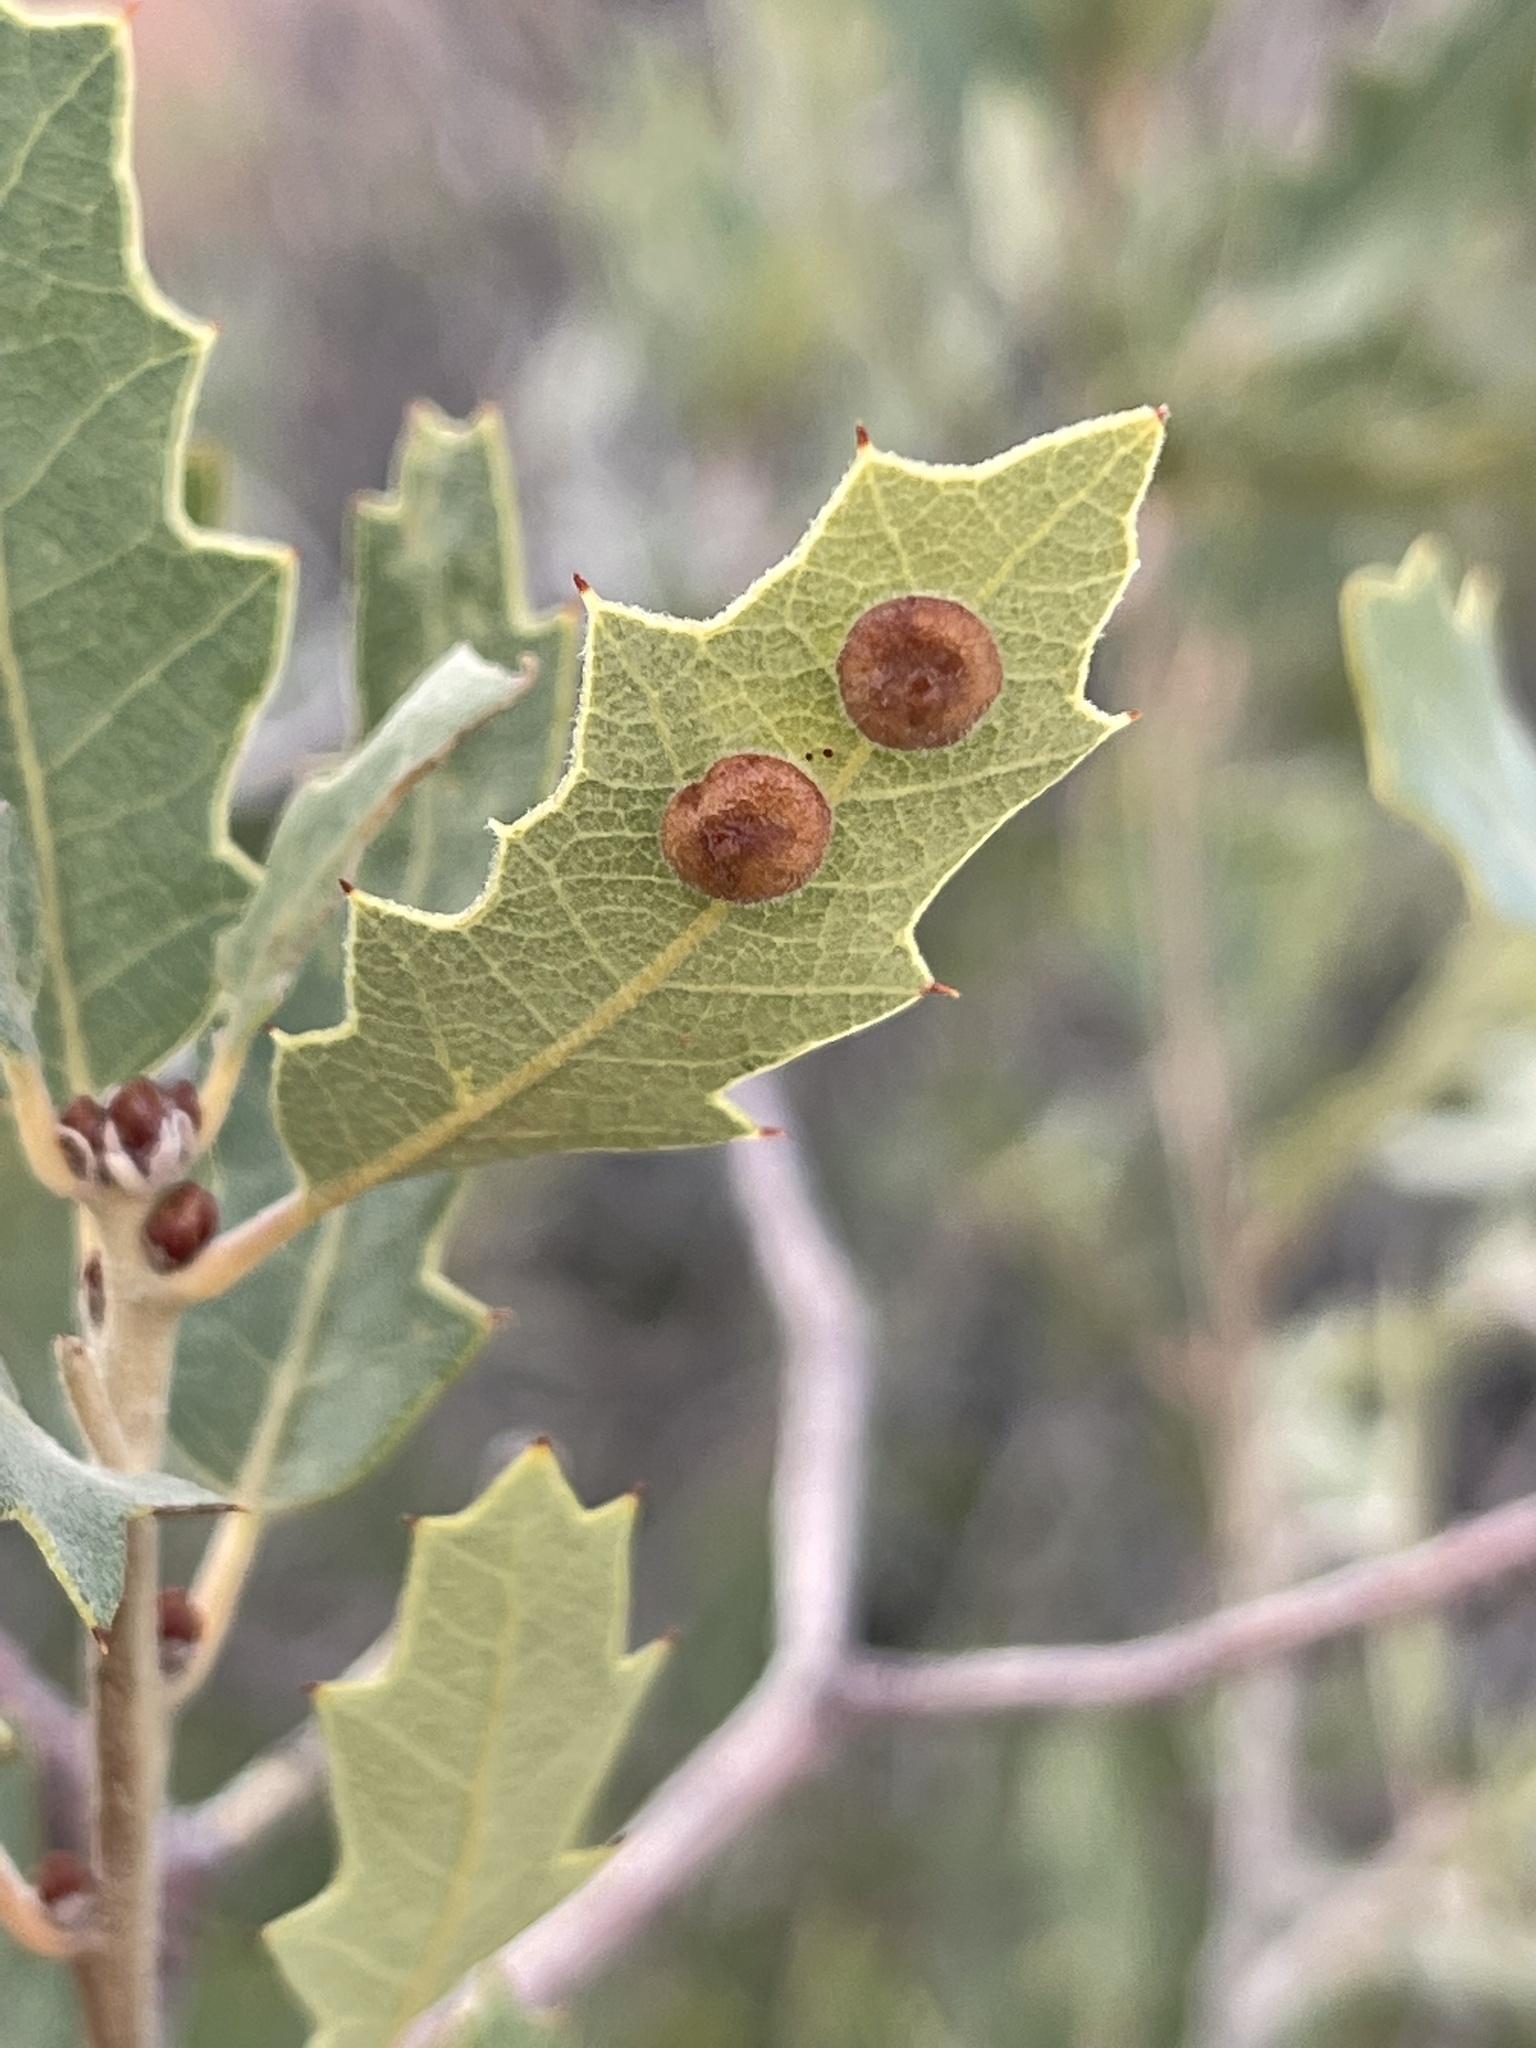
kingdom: Animalia
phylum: Arthropoda
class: Insecta
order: Hymenoptera
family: Cynipidae
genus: Andricus
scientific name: Andricus
